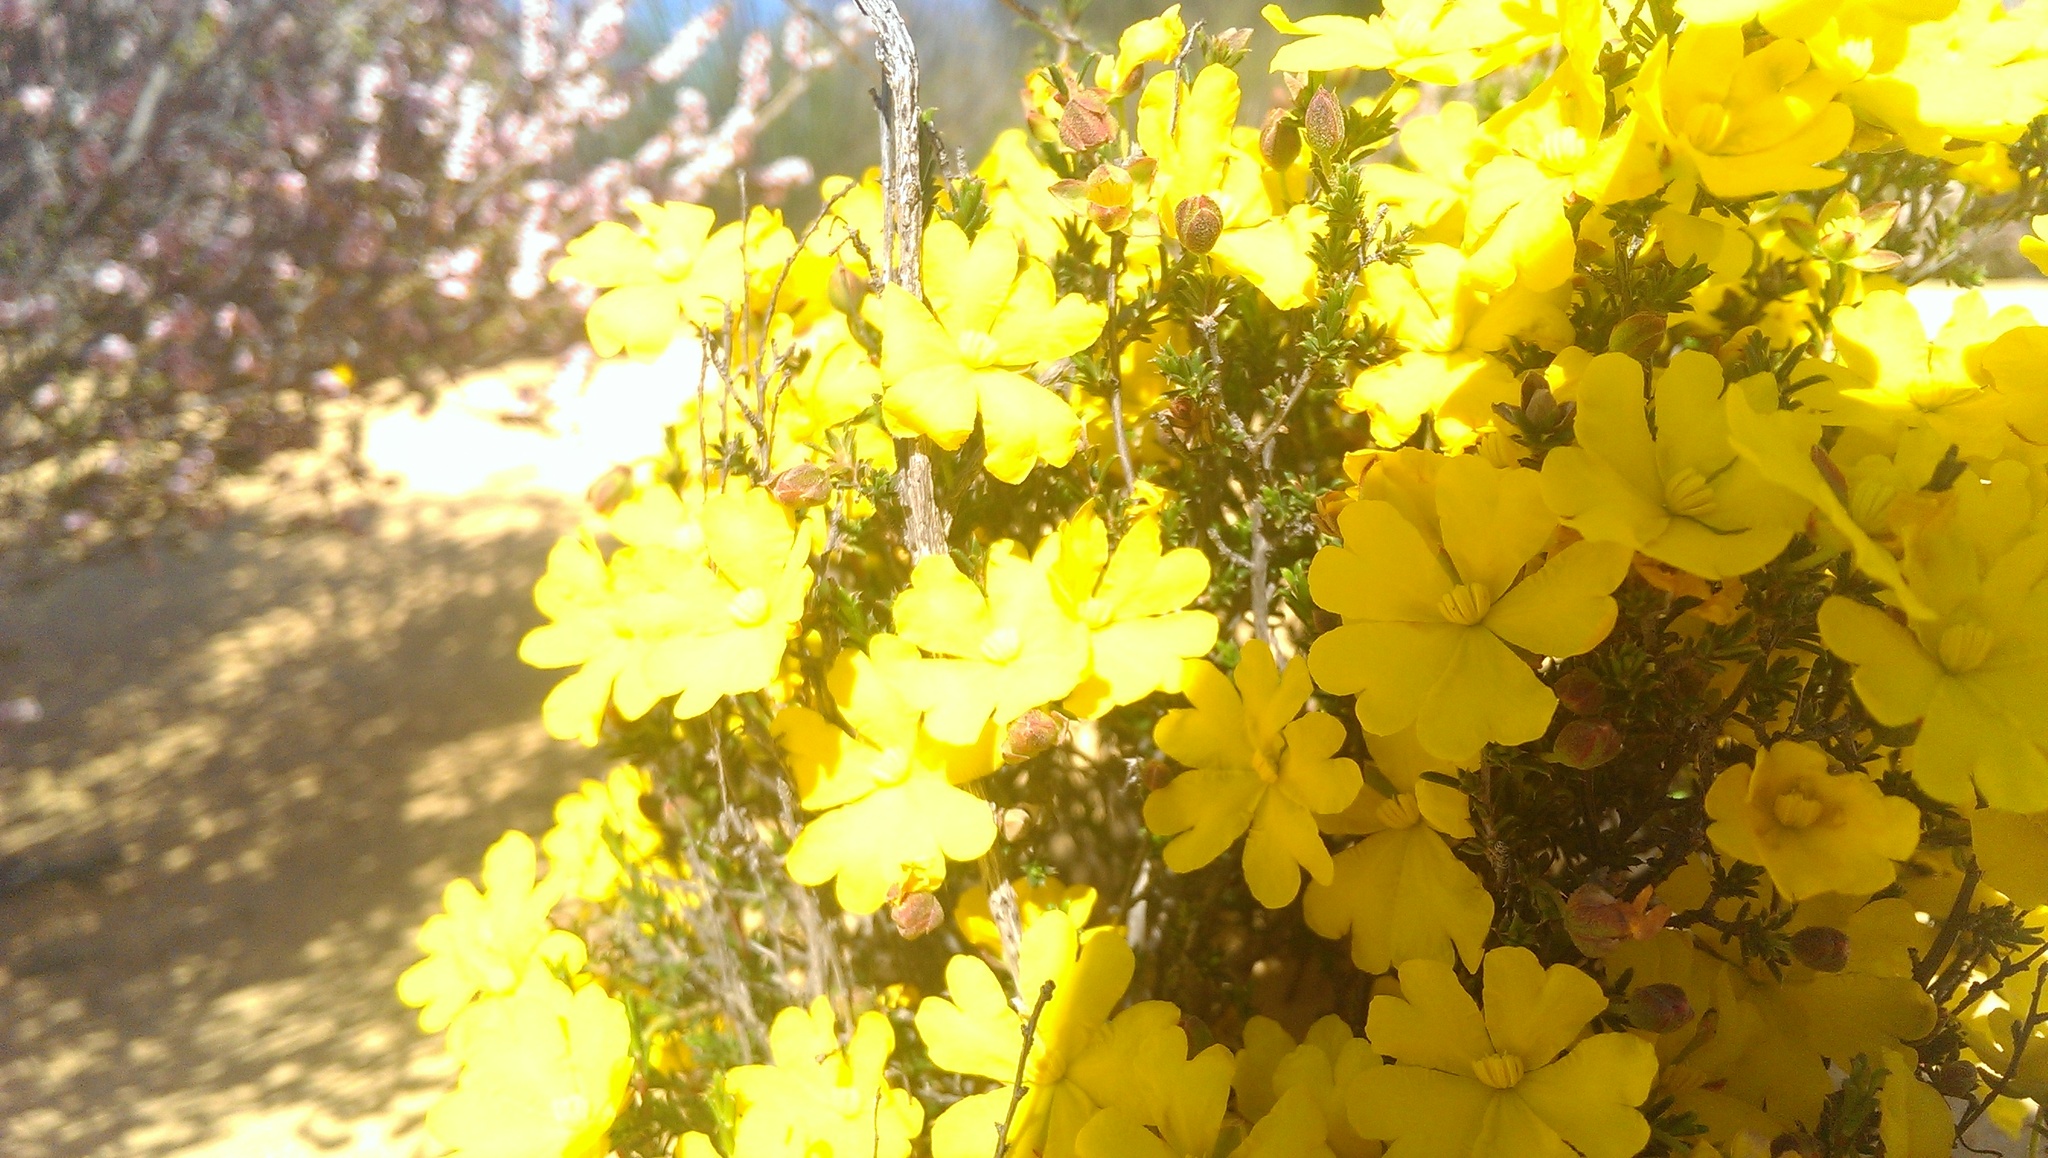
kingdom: Plantae
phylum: Tracheophyta
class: Magnoliopsida
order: Dilleniales
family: Dilleniaceae
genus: Hibbertia
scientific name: Hibbertia eatoniae
